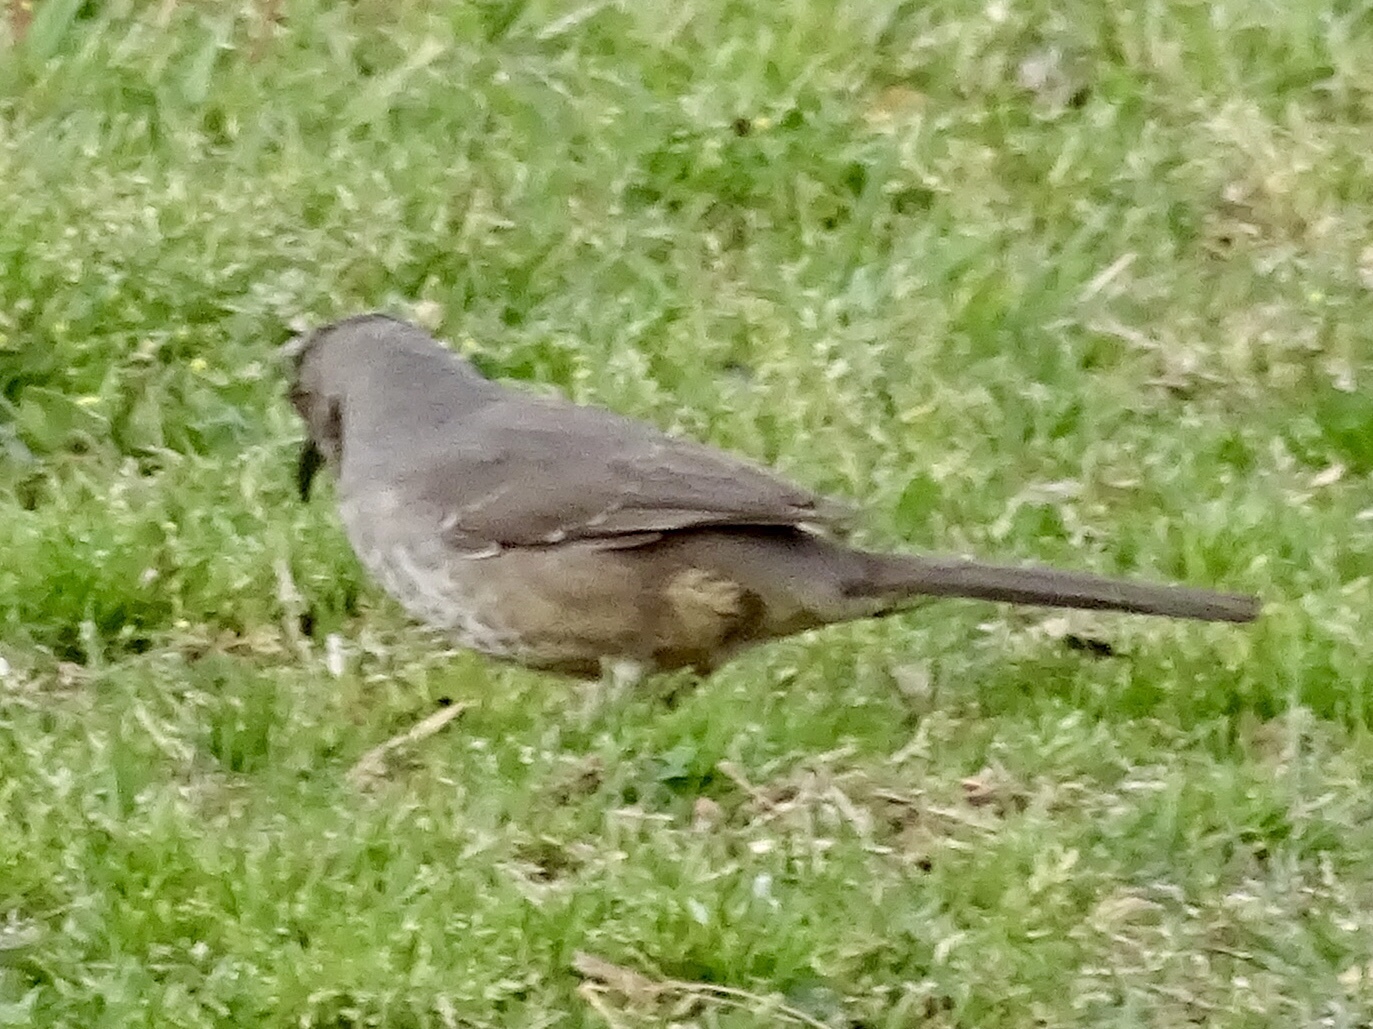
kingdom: Animalia
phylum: Chordata
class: Aves
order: Passeriformes
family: Mimidae
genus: Toxostoma
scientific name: Toxostoma curvirostre
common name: Curve-billed thrasher
